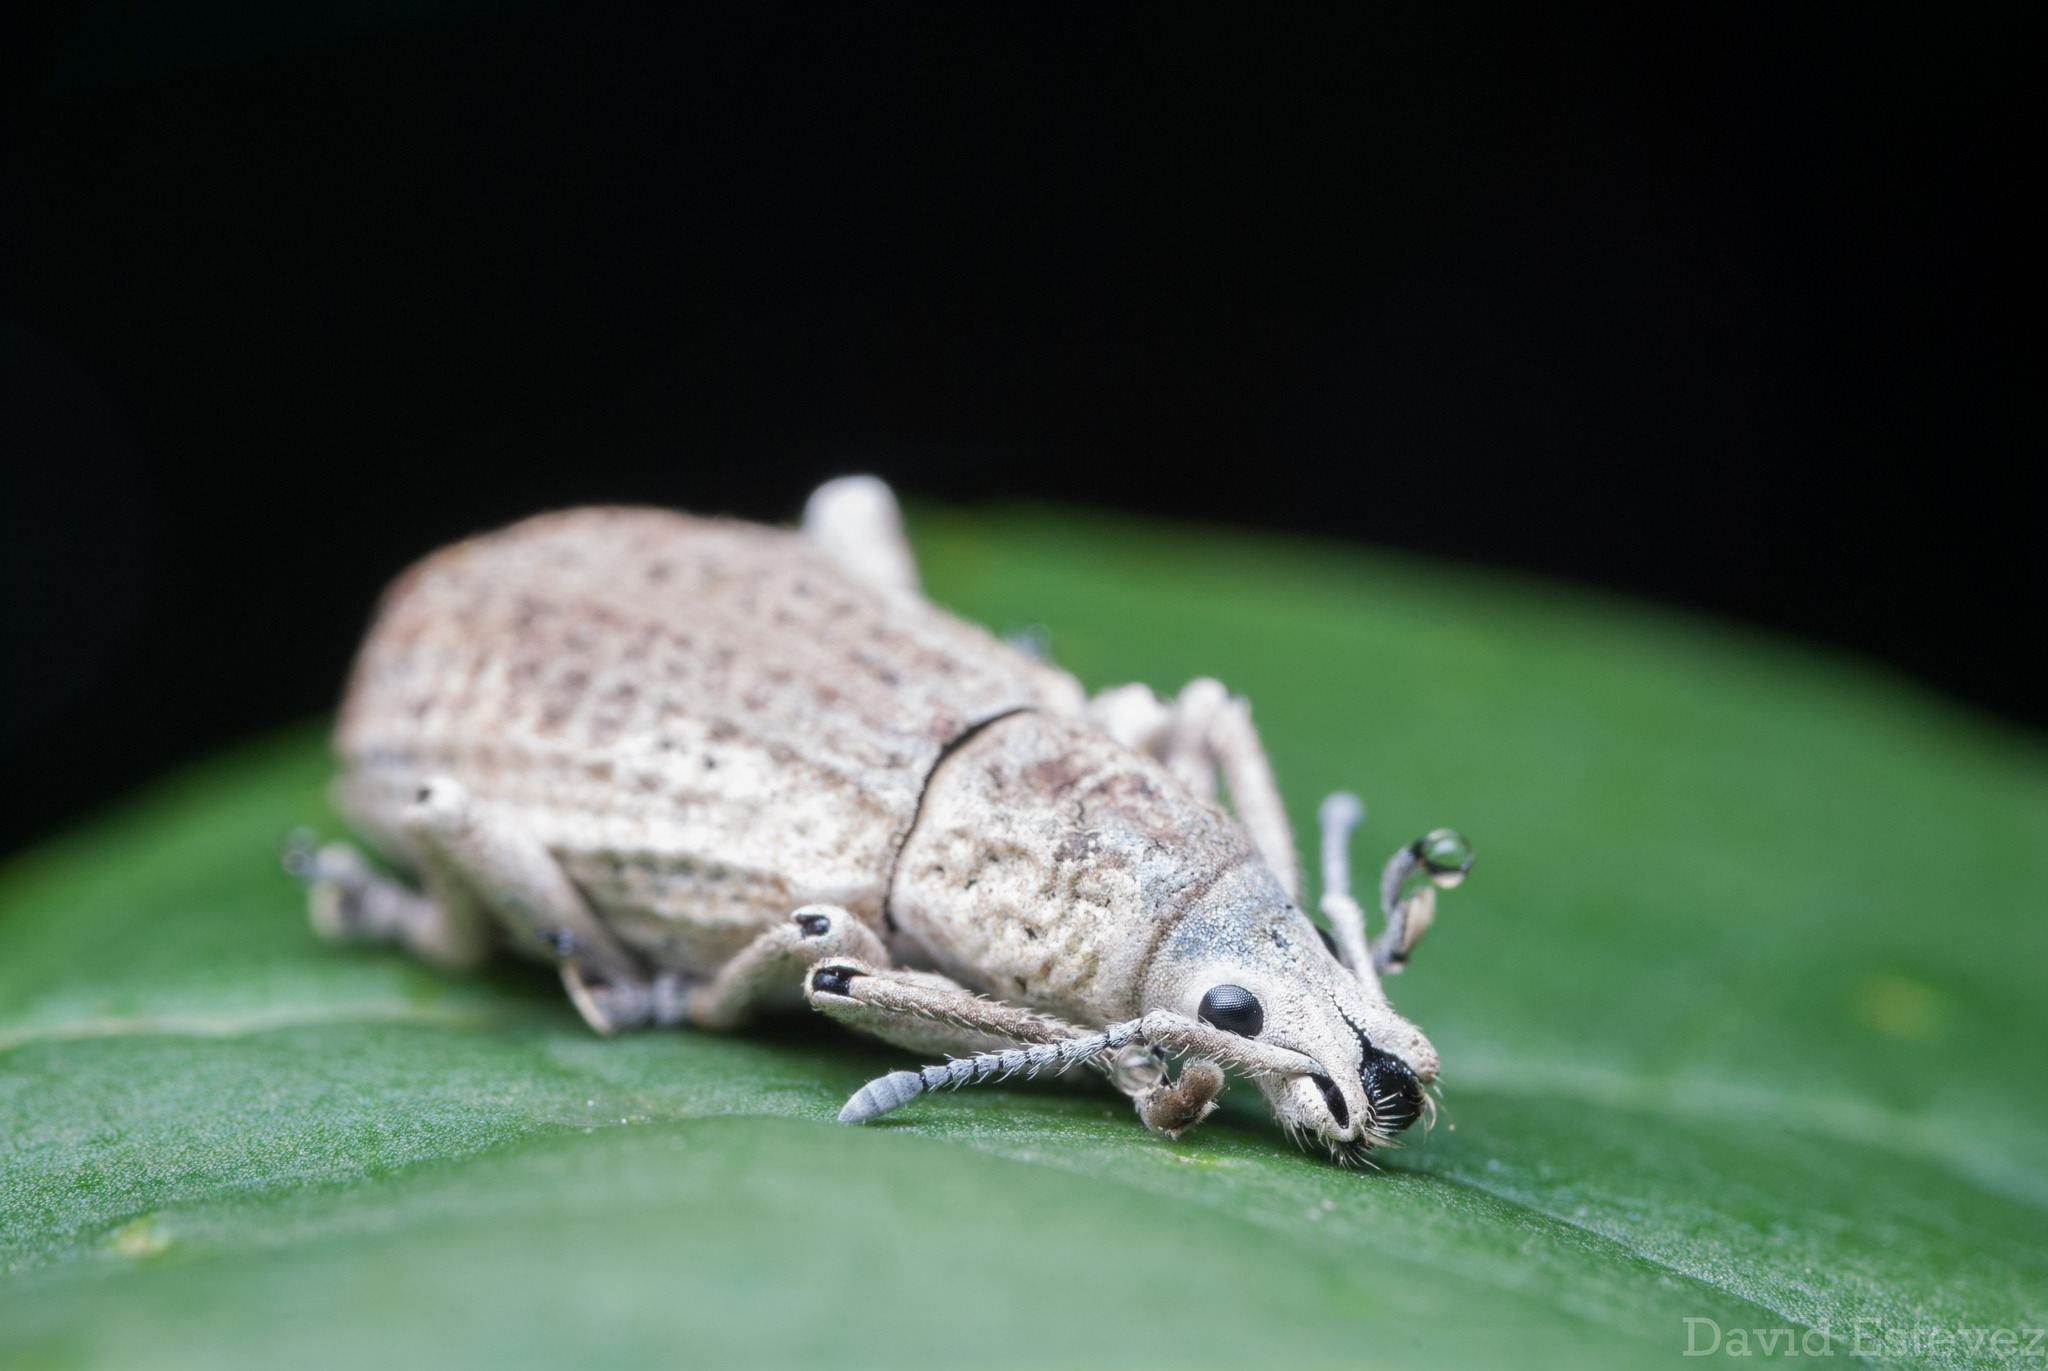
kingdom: Animalia
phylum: Arthropoda
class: Insecta
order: Coleoptera
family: Curculionidae
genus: Compsus
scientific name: Compsus canescens
